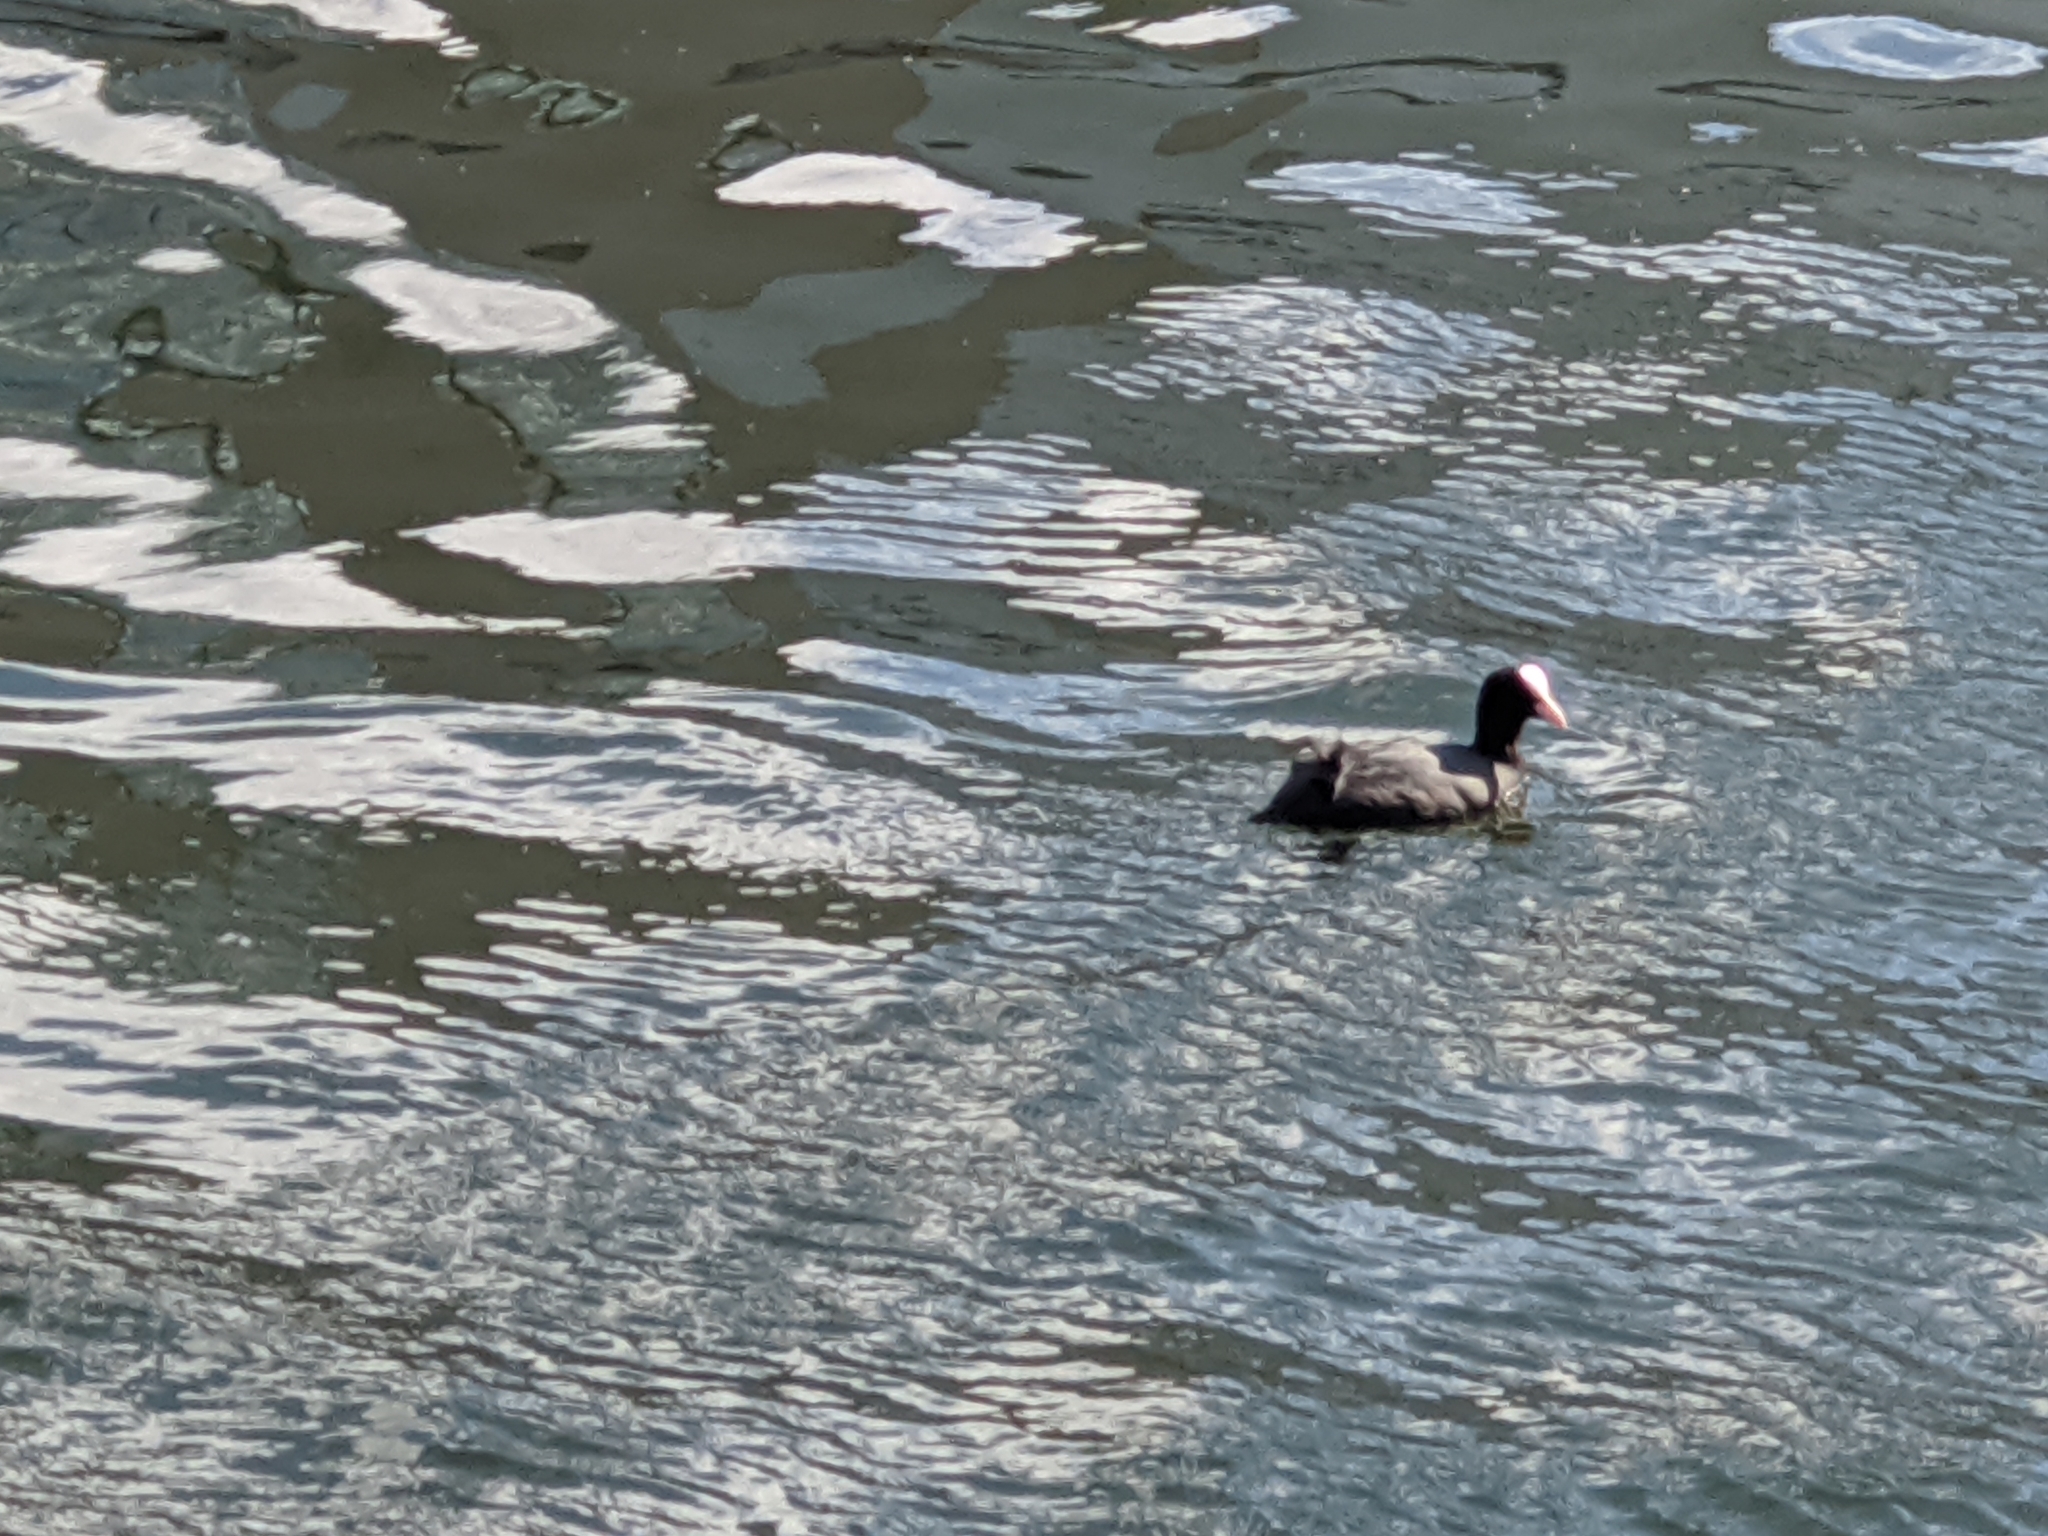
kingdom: Animalia
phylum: Chordata
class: Aves
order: Gruiformes
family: Rallidae
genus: Fulica
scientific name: Fulica atra
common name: Eurasian coot
